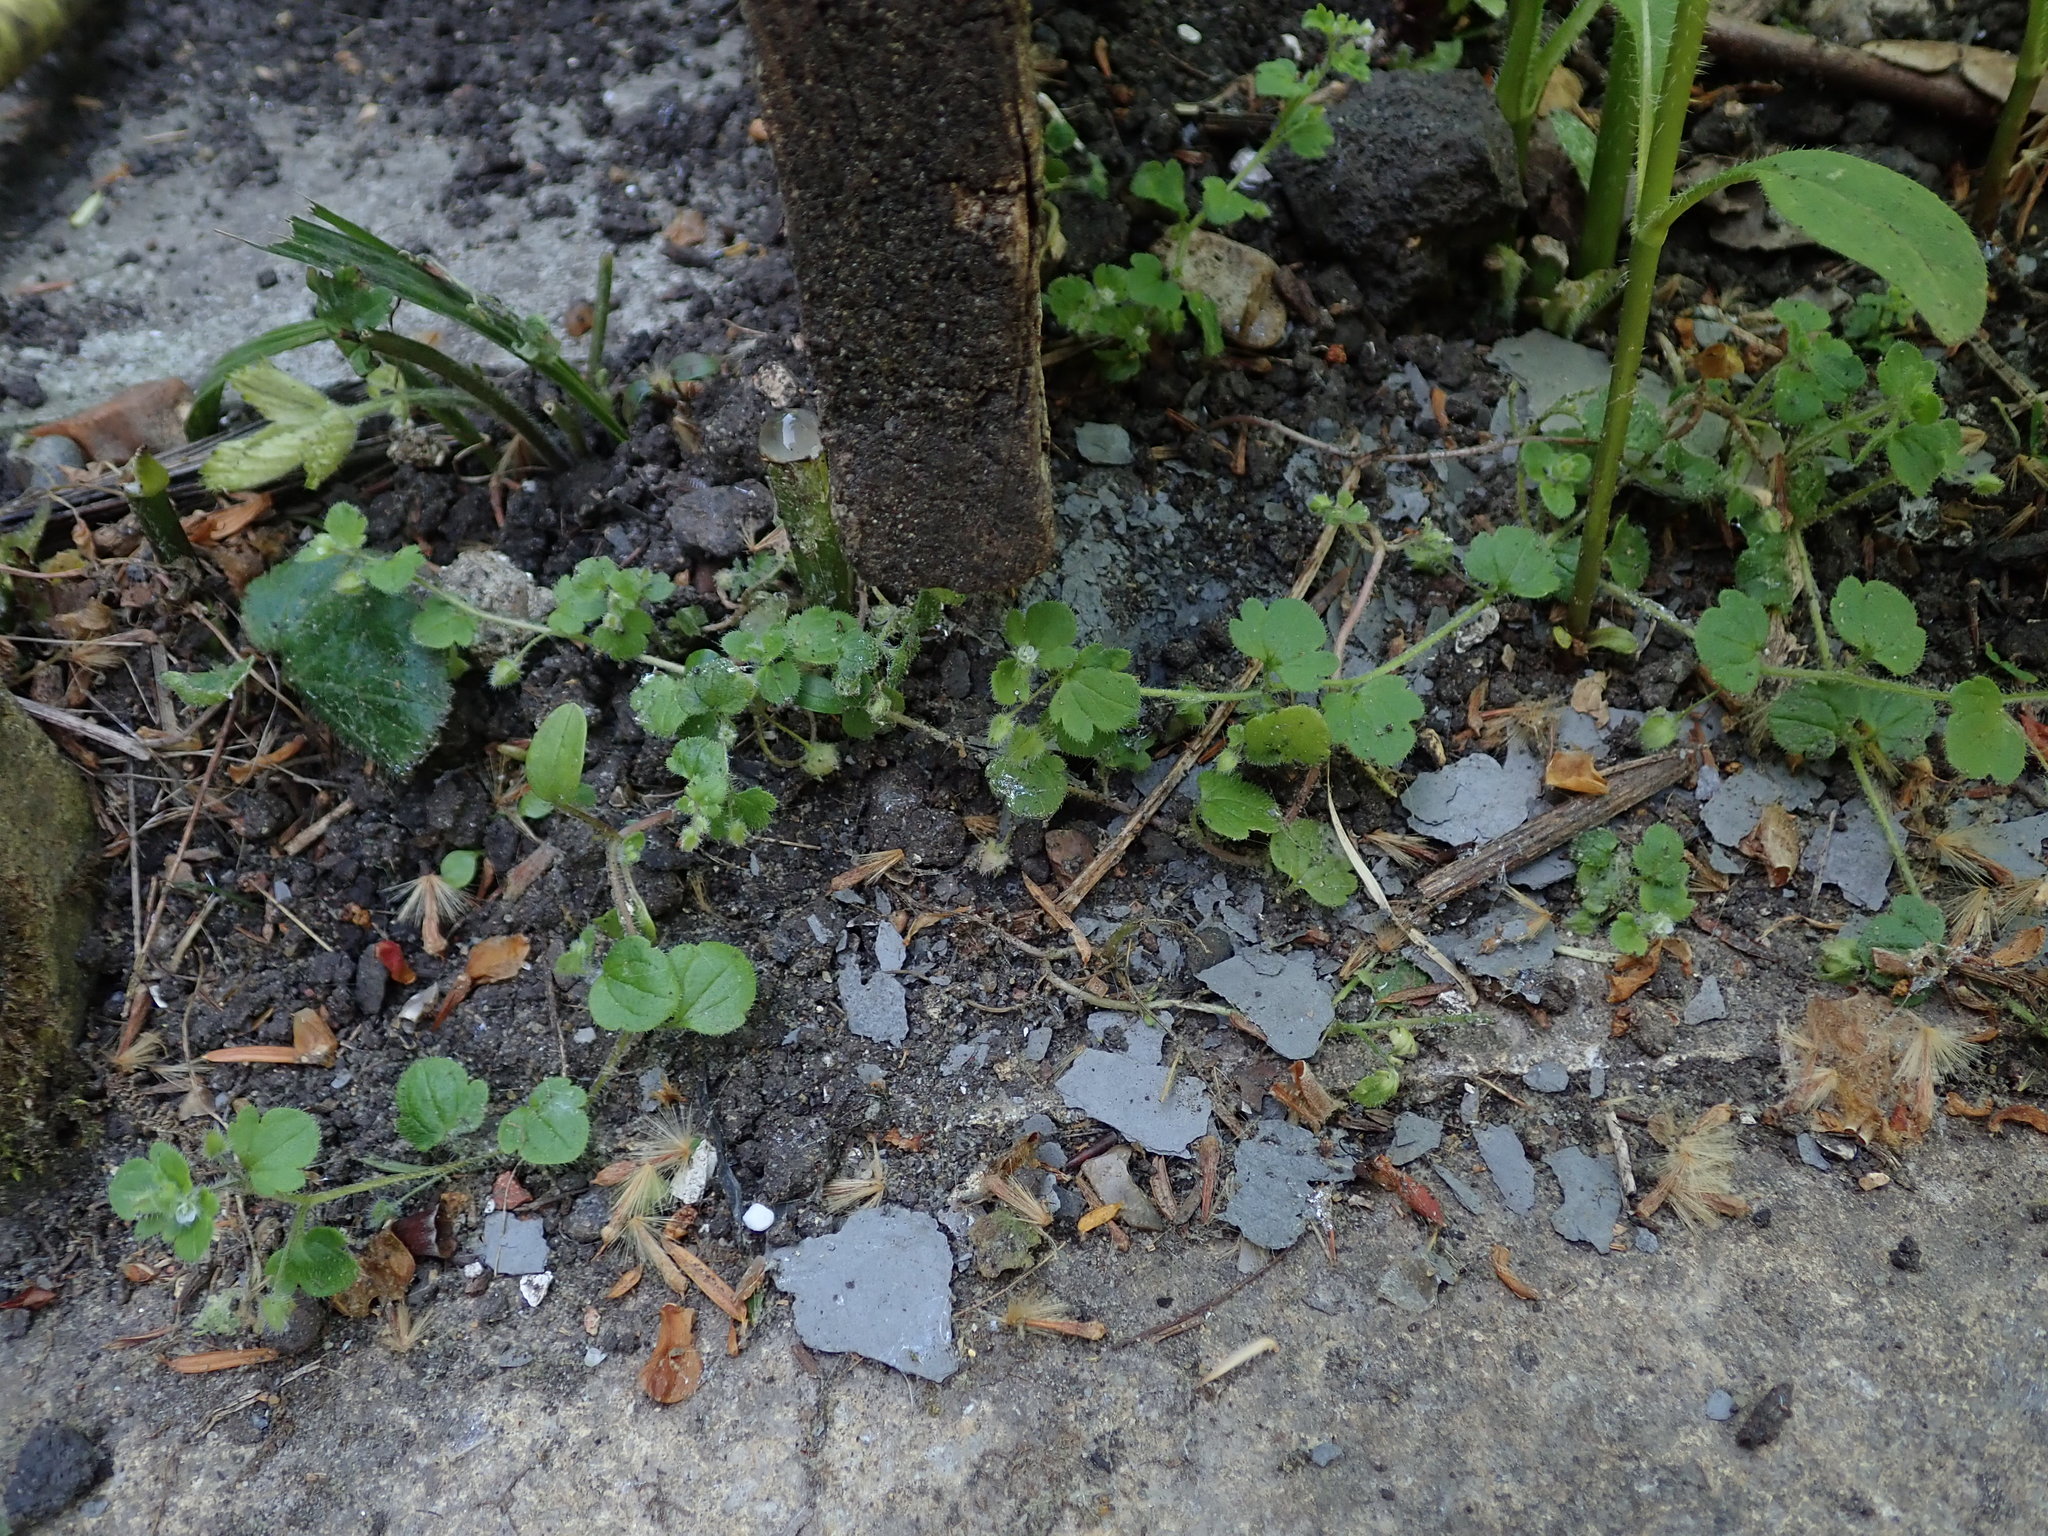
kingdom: Plantae
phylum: Tracheophyta
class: Magnoliopsida
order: Lamiales
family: Plantaginaceae
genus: Veronica
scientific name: Veronica sublobata
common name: False ivy-leaved speedwell
